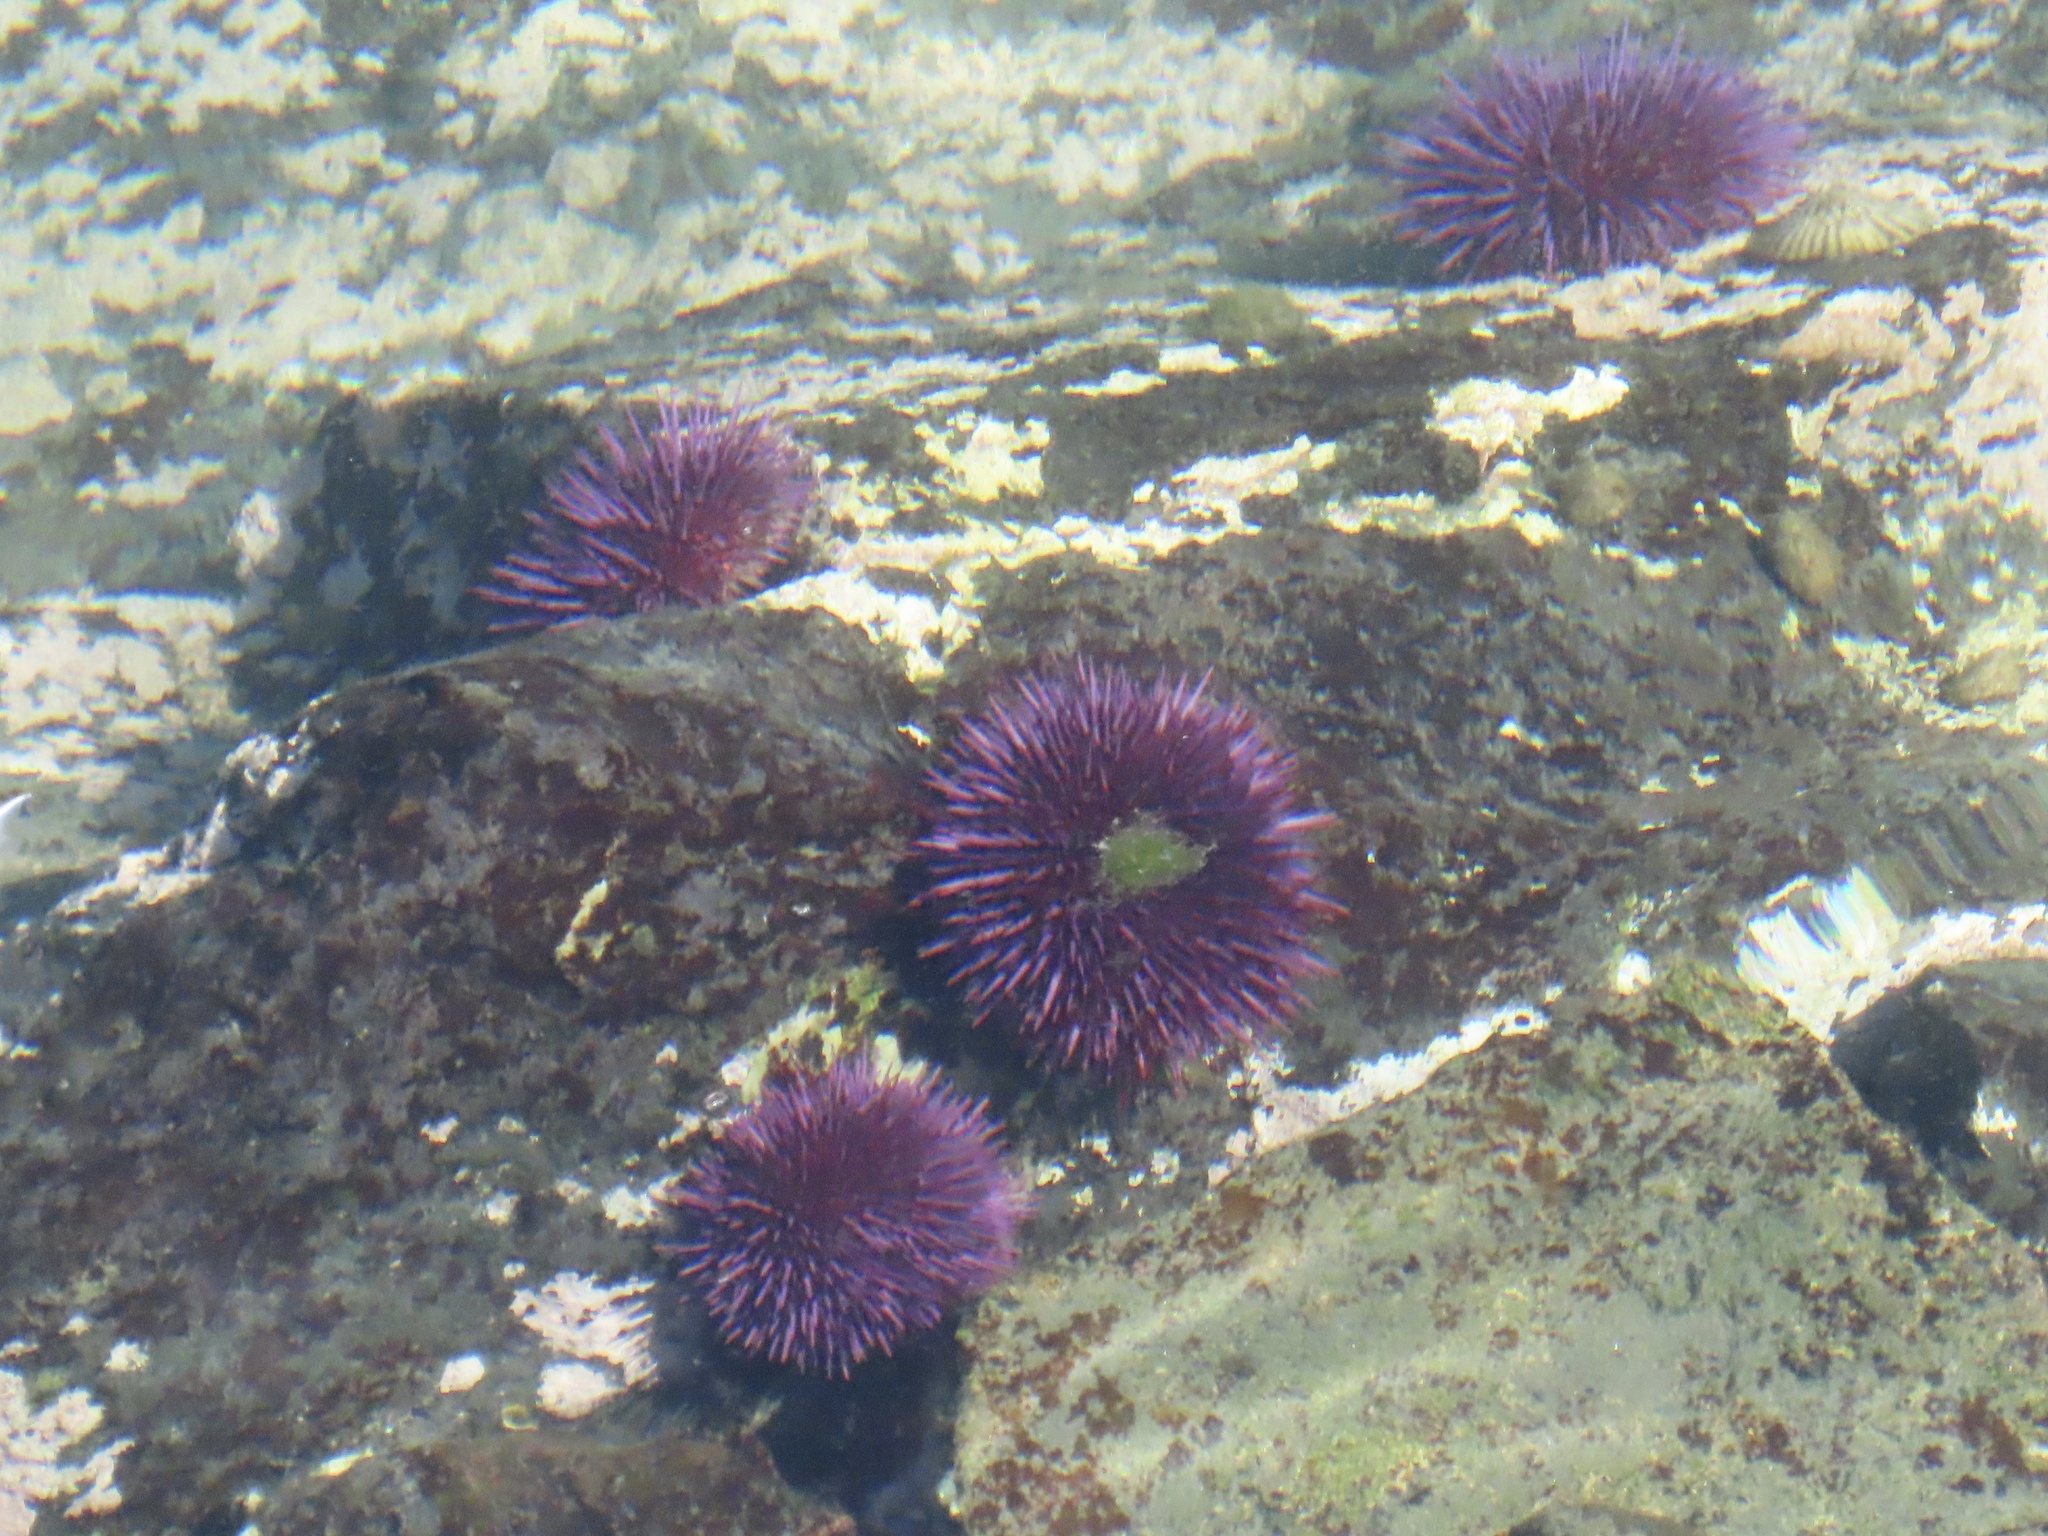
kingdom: Animalia
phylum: Echinodermata
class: Echinoidea
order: Camarodonta
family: Strongylocentrotidae
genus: Strongylocentrotus
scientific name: Strongylocentrotus purpuratus
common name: Purple sea urchin
